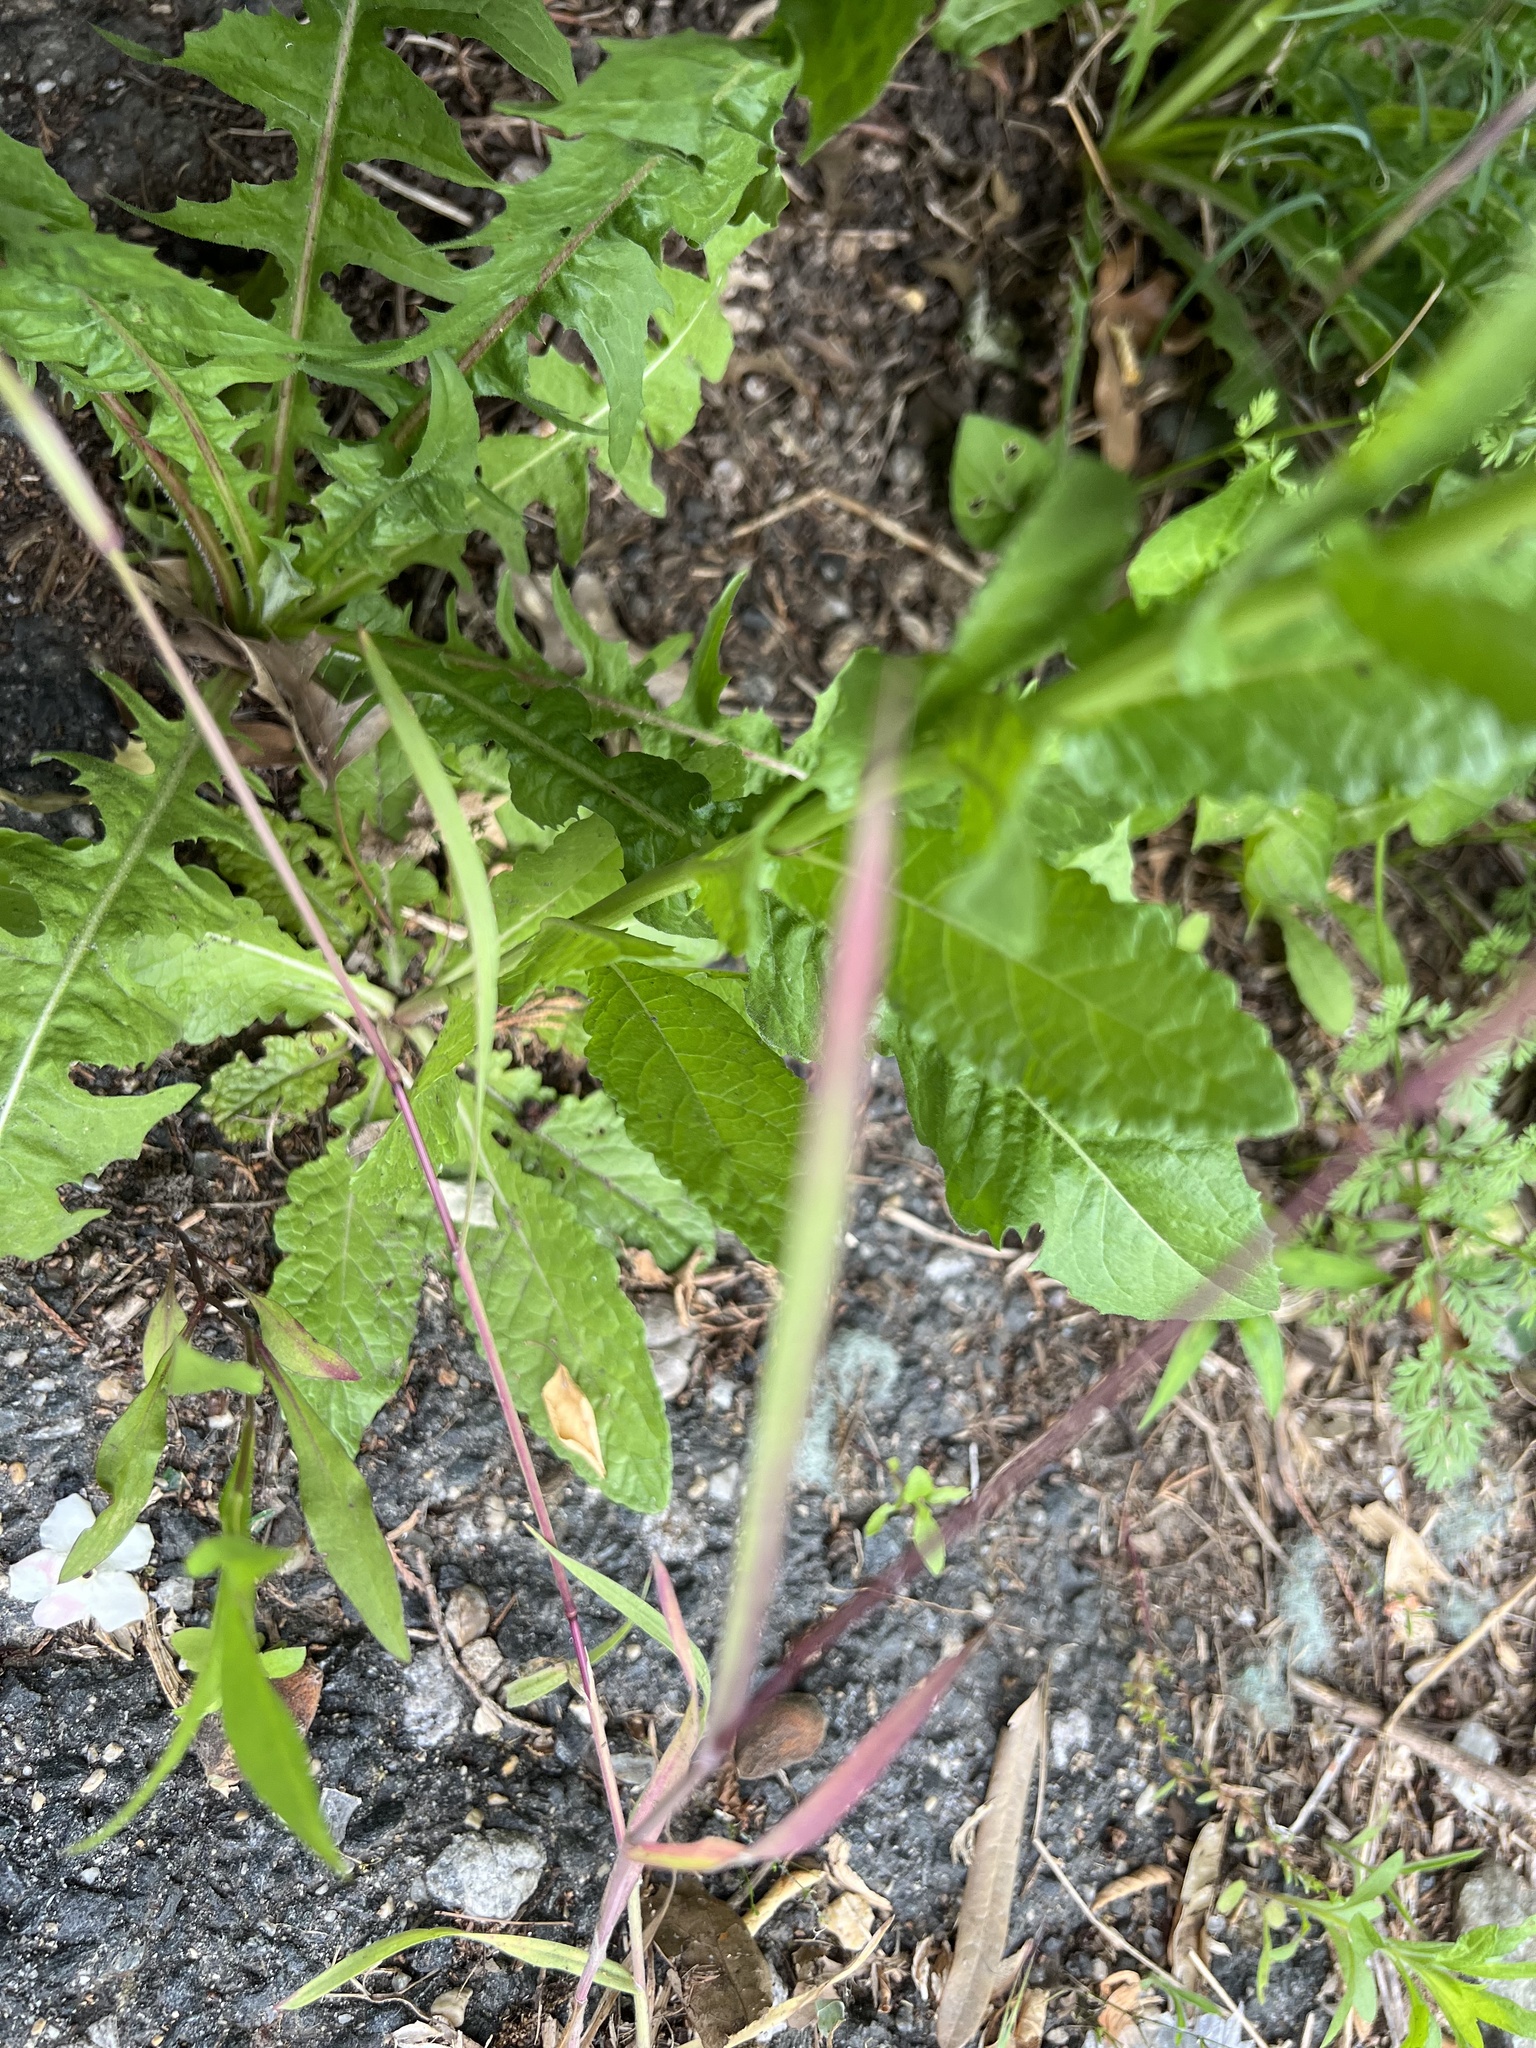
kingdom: Plantae
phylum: Tracheophyta
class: Magnoliopsida
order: Lamiales
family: Scrophulariaceae
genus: Verbascum
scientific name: Verbascum blattaria
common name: Moth mullein
